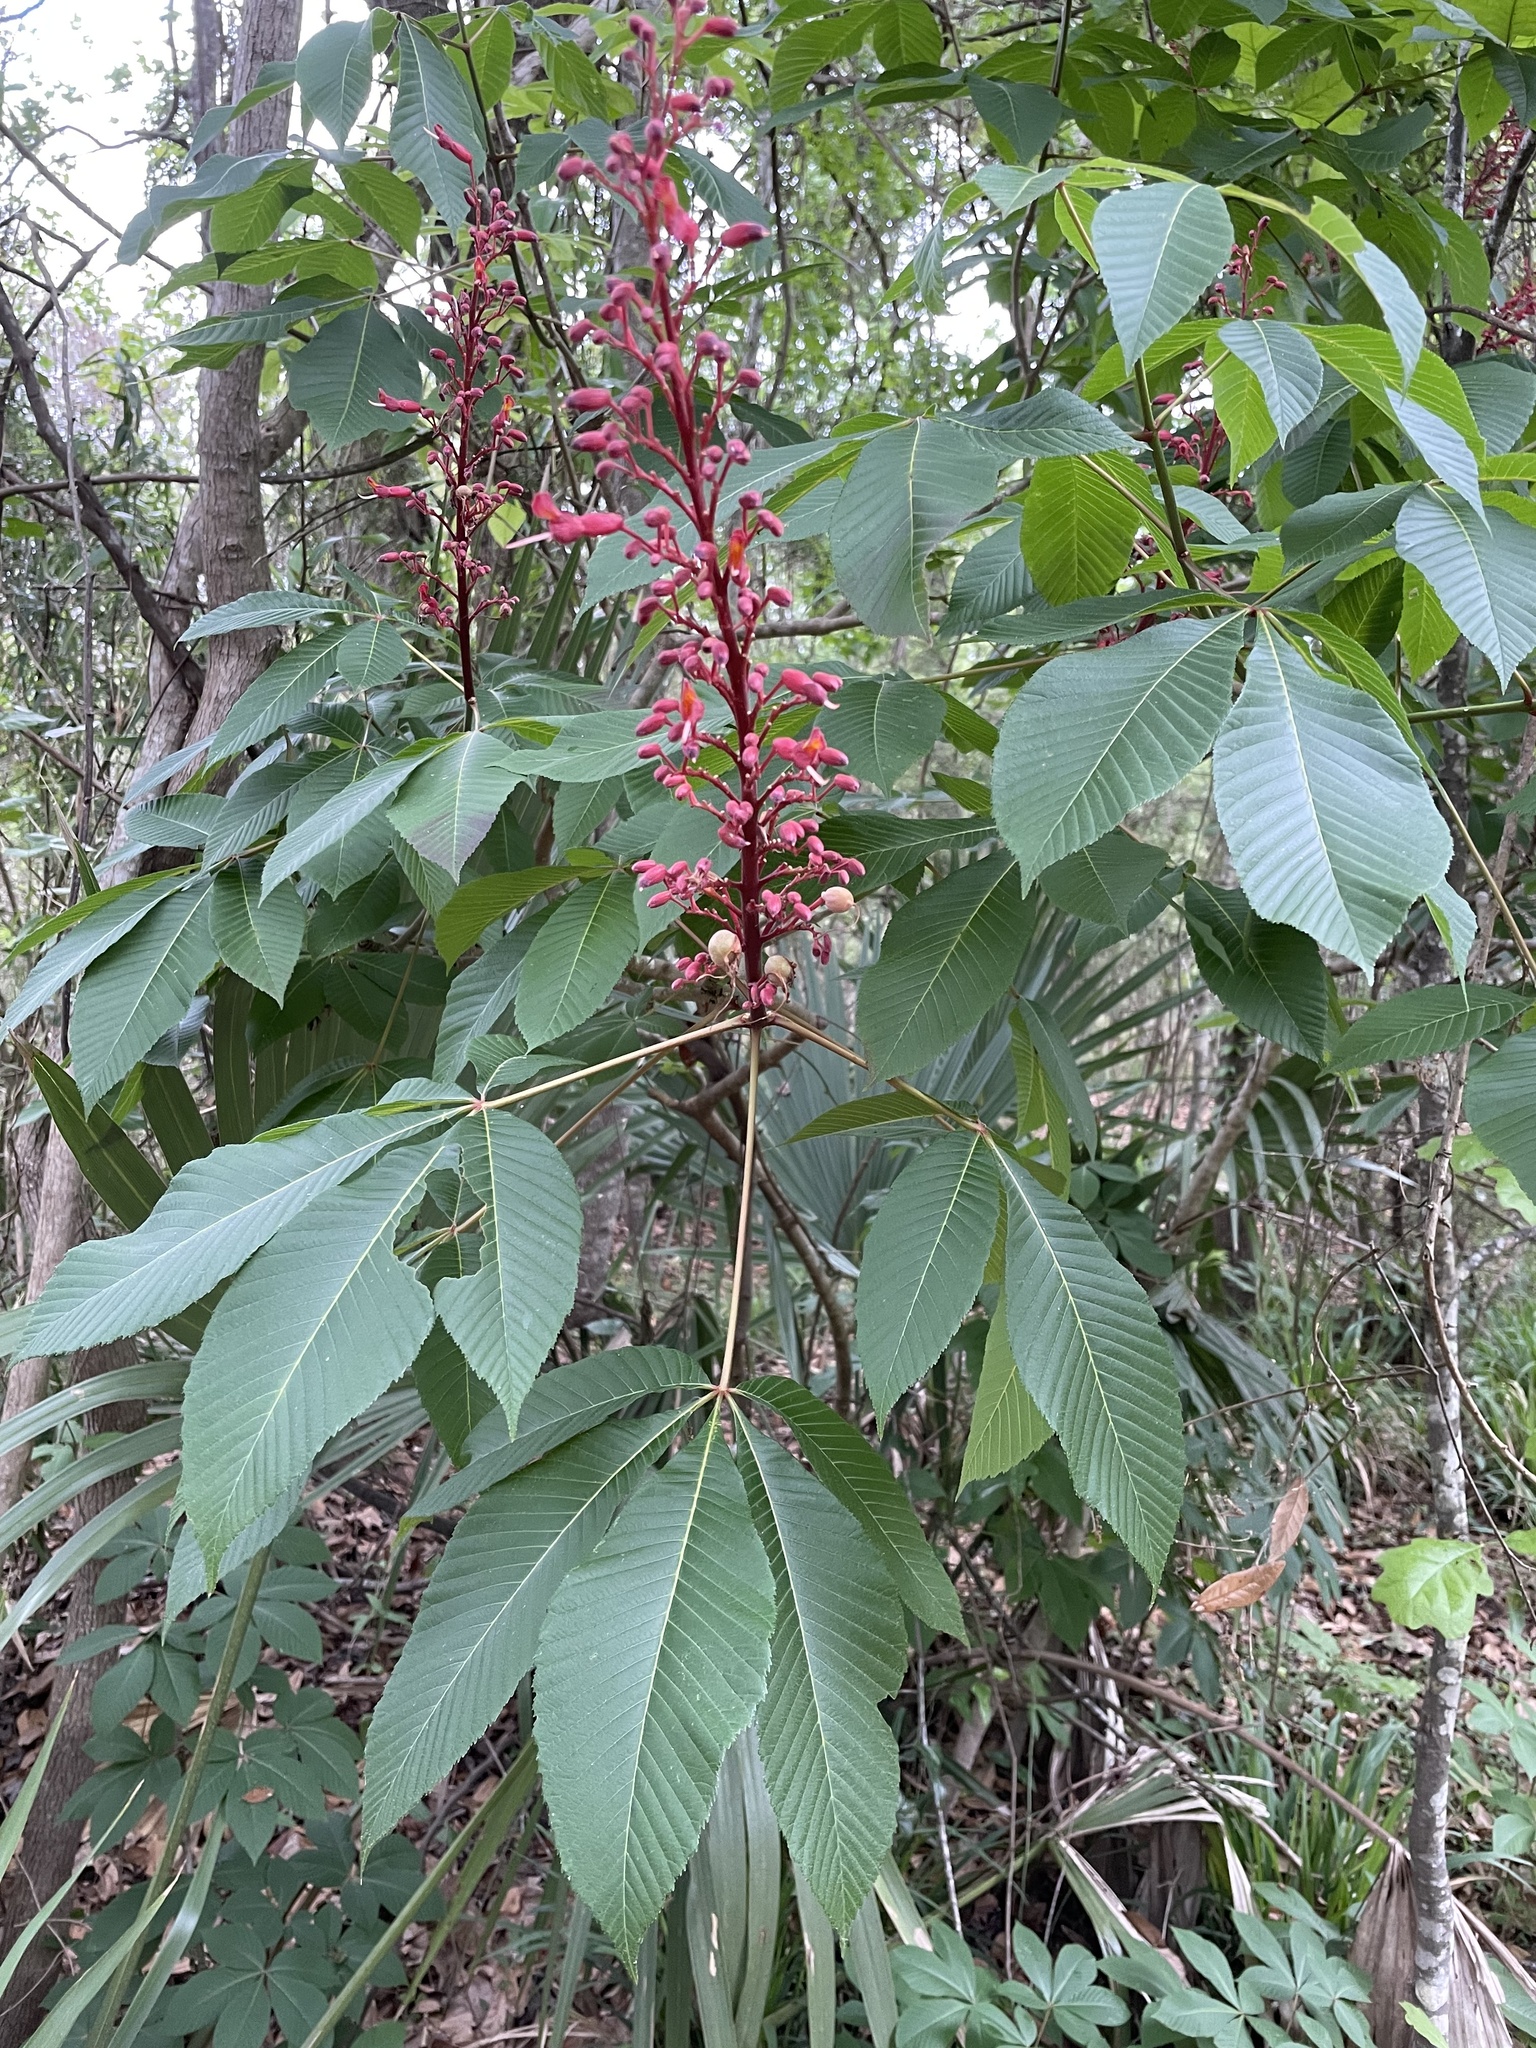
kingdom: Plantae
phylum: Tracheophyta
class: Magnoliopsida
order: Sapindales
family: Sapindaceae
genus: Aesculus
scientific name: Aesculus pavia
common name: Red buckeye
